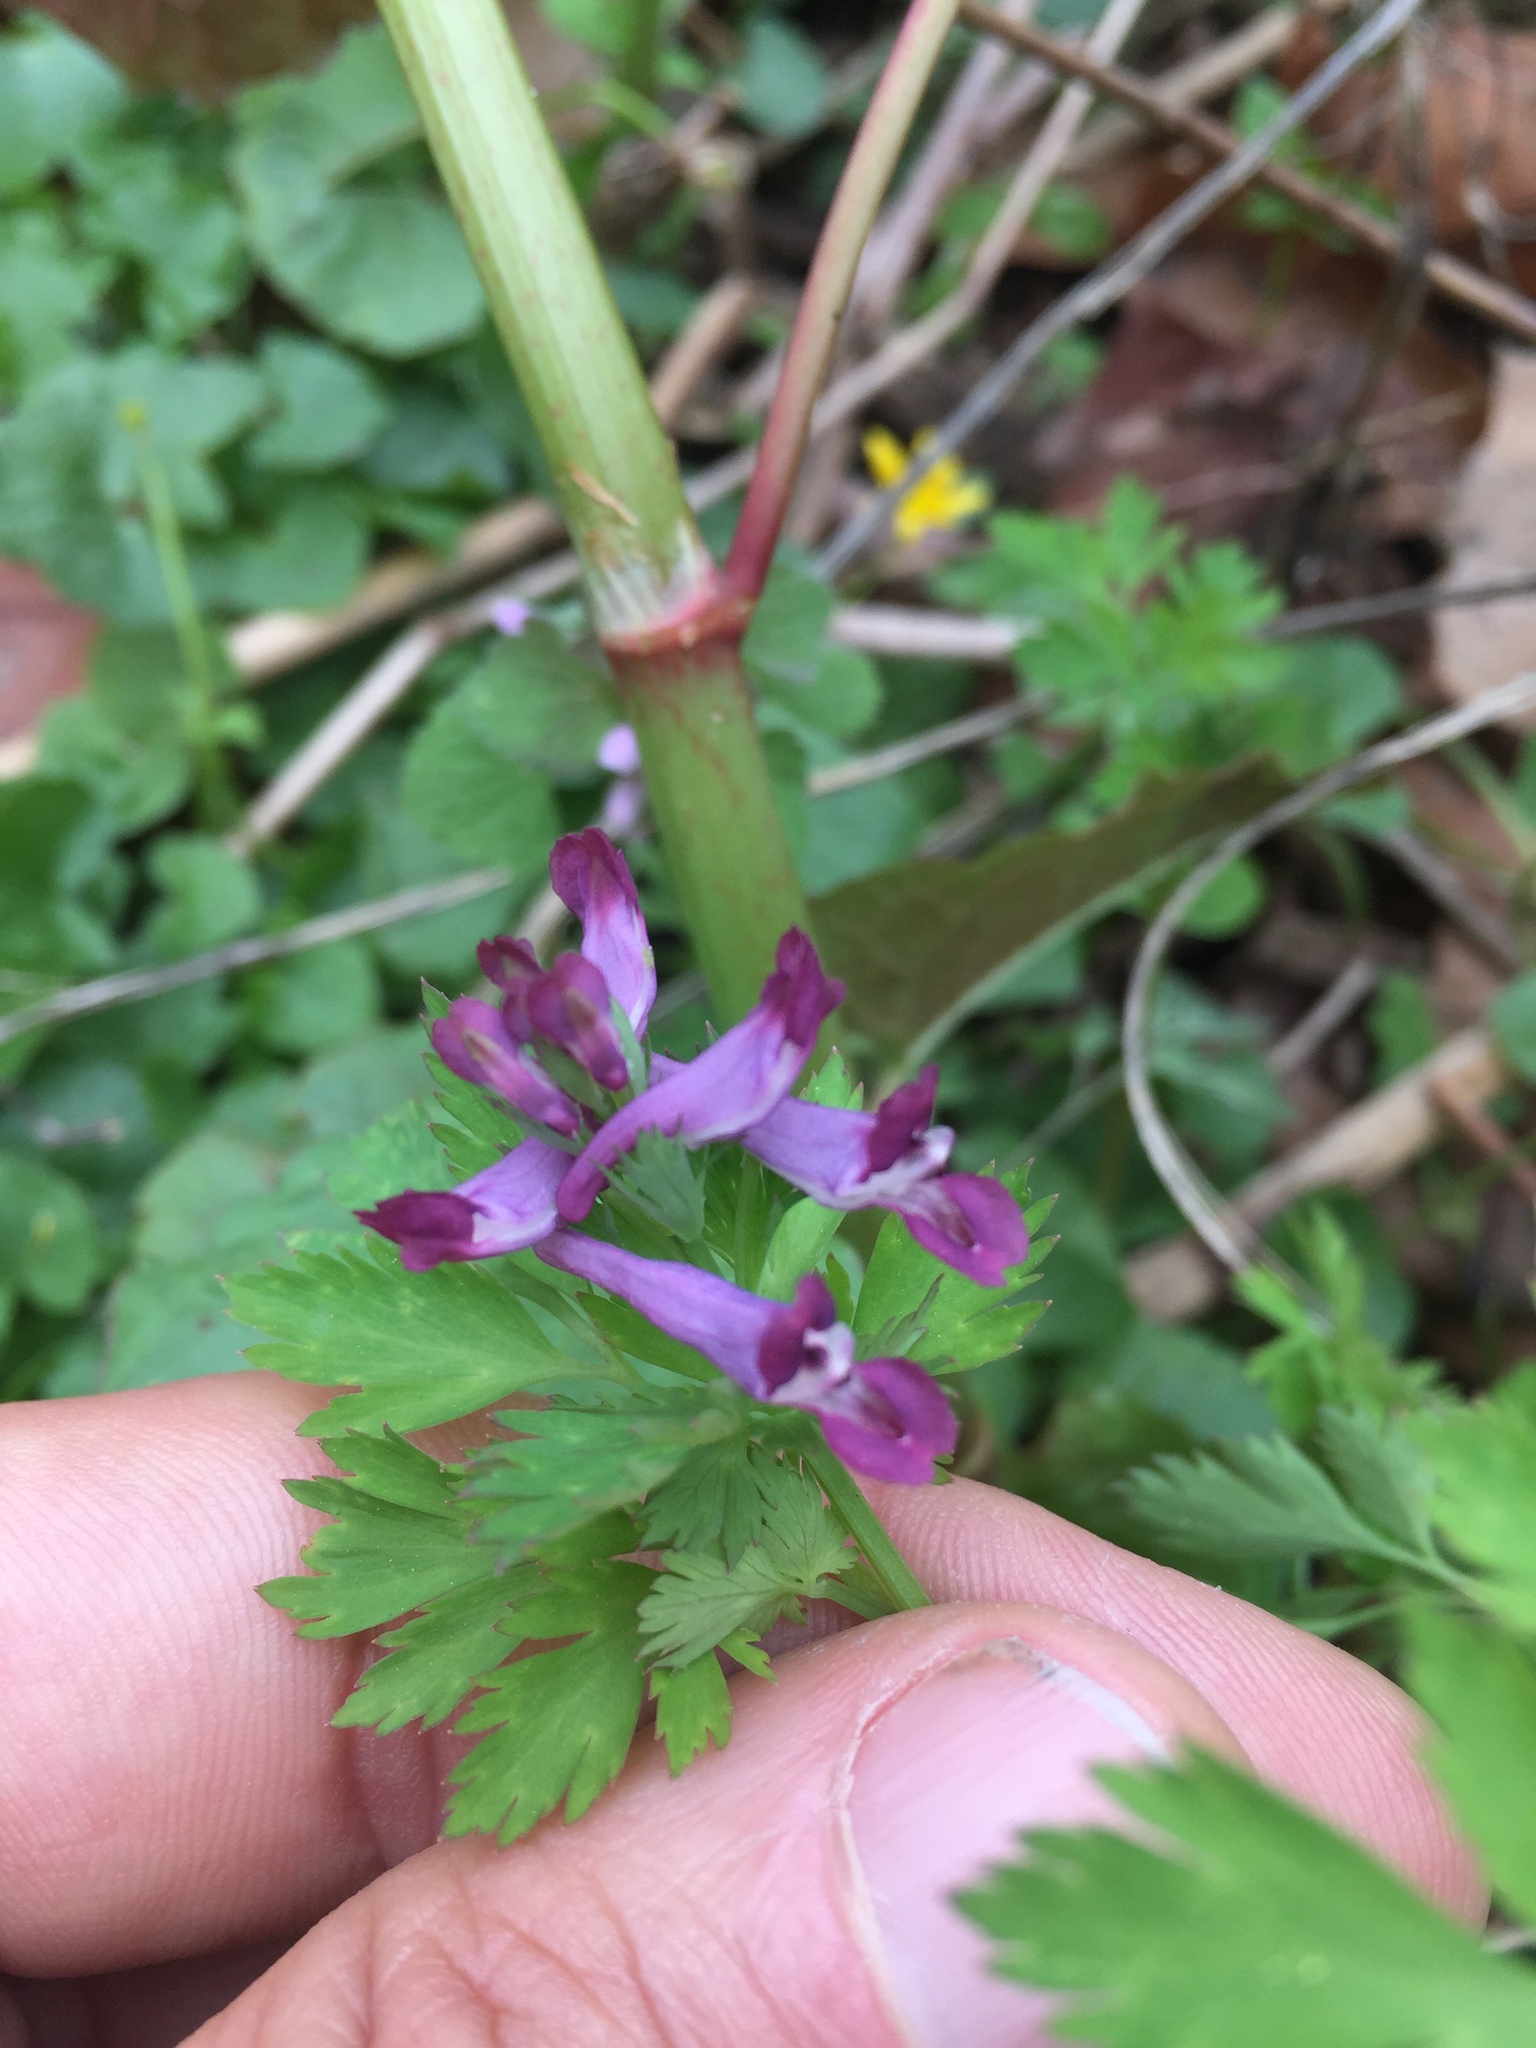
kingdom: Plantae
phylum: Tracheophyta
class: Magnoliopsida
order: Ranunculales
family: Papaveraceae
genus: Corydalis
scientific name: Corydalis incisa
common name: Incised fumewort
